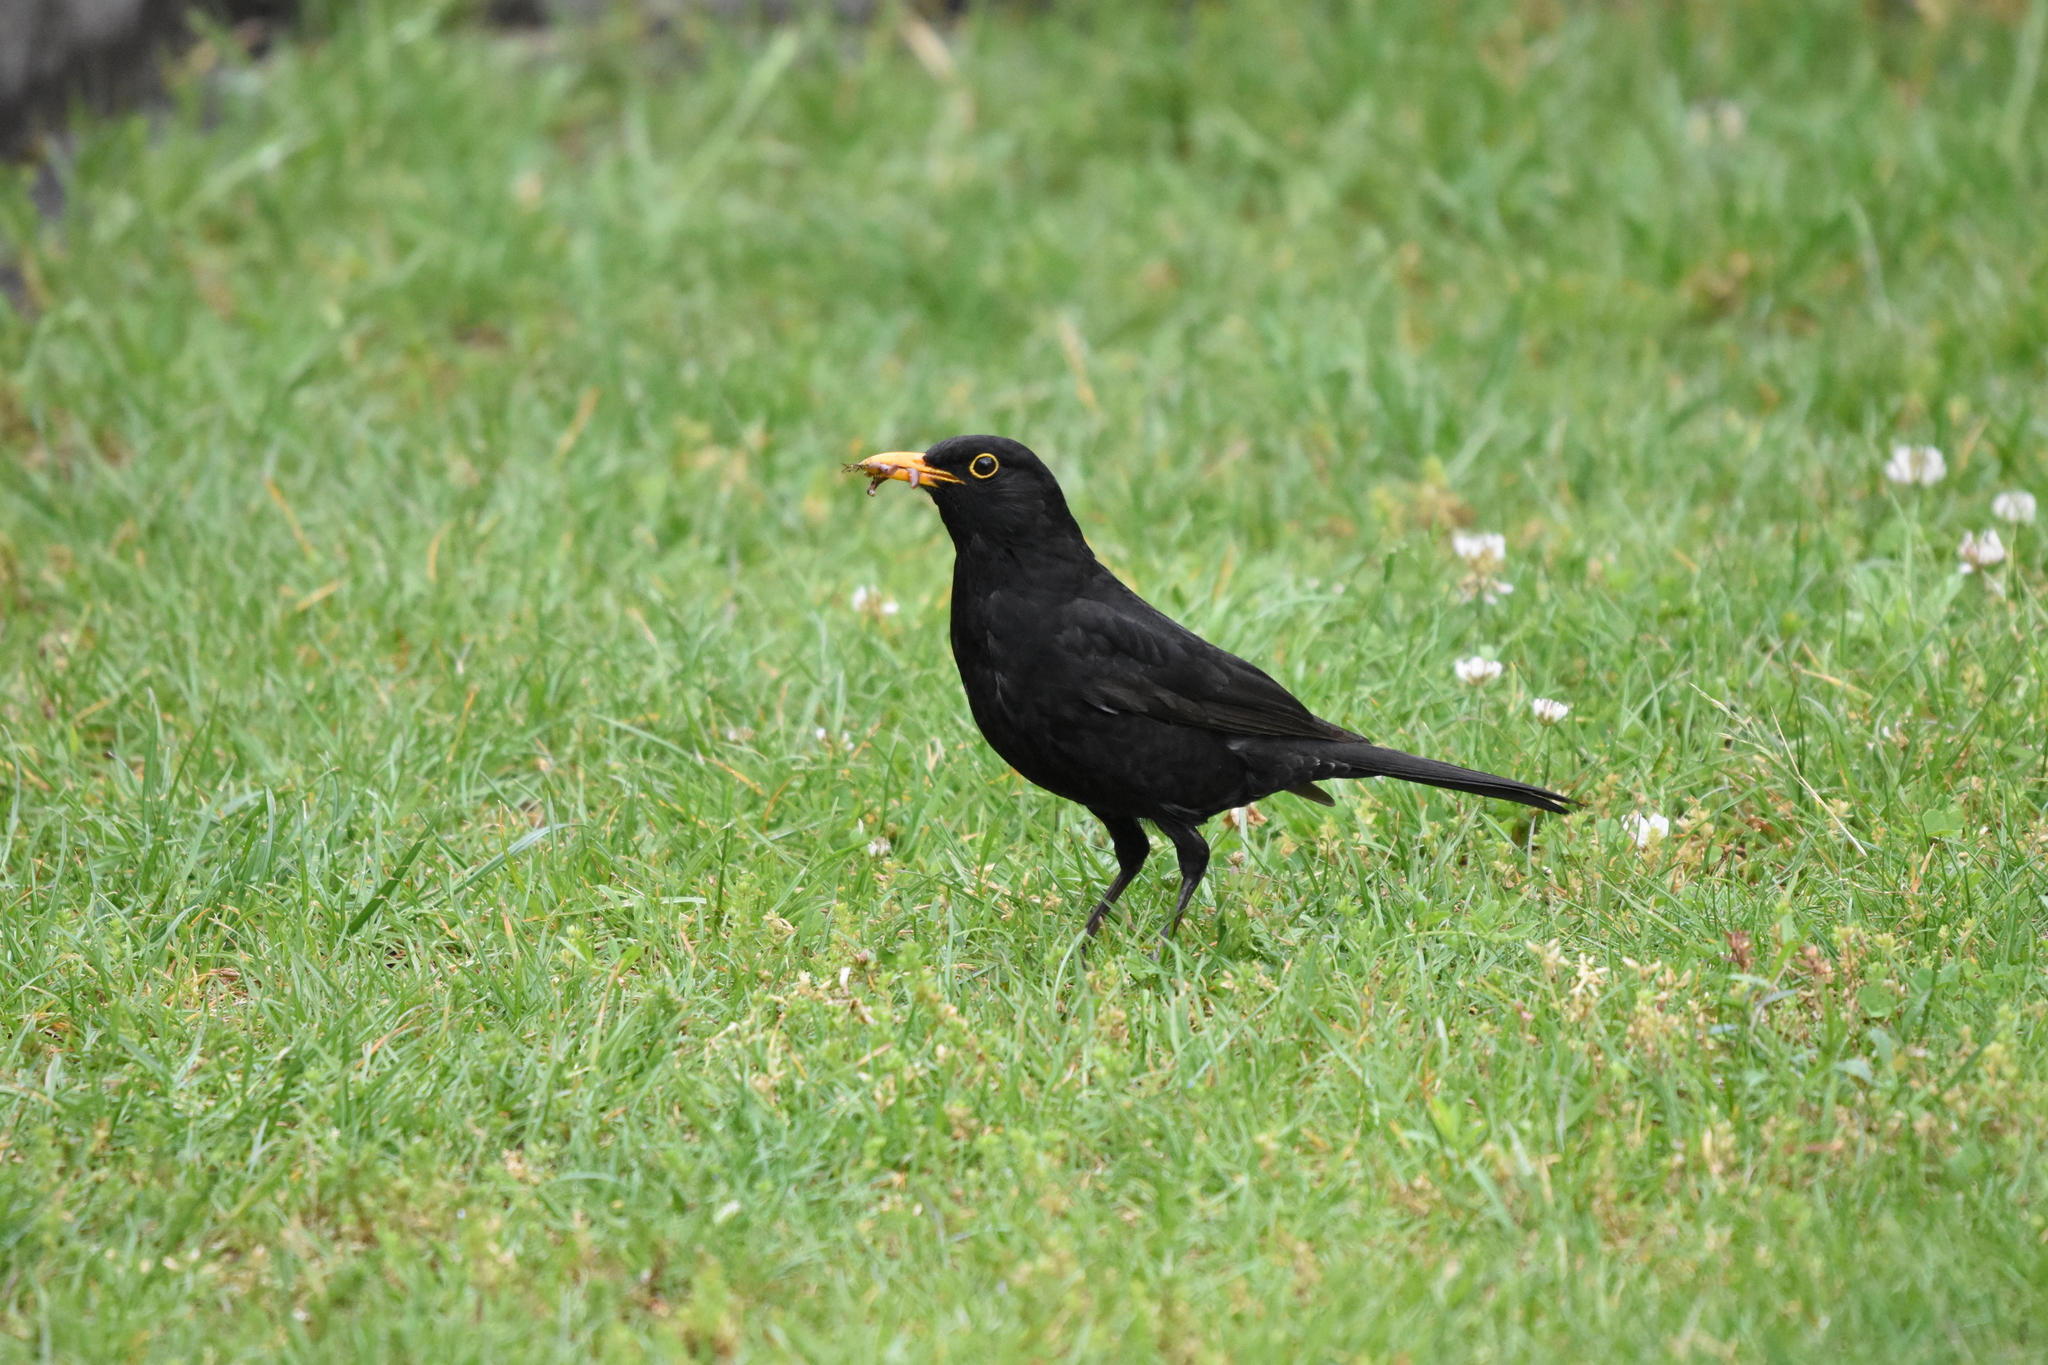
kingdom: Animalia
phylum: Chordata
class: Aves
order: Passeriformes
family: Turdidae
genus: Turdus
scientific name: Turdus merula
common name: Common blackbird
